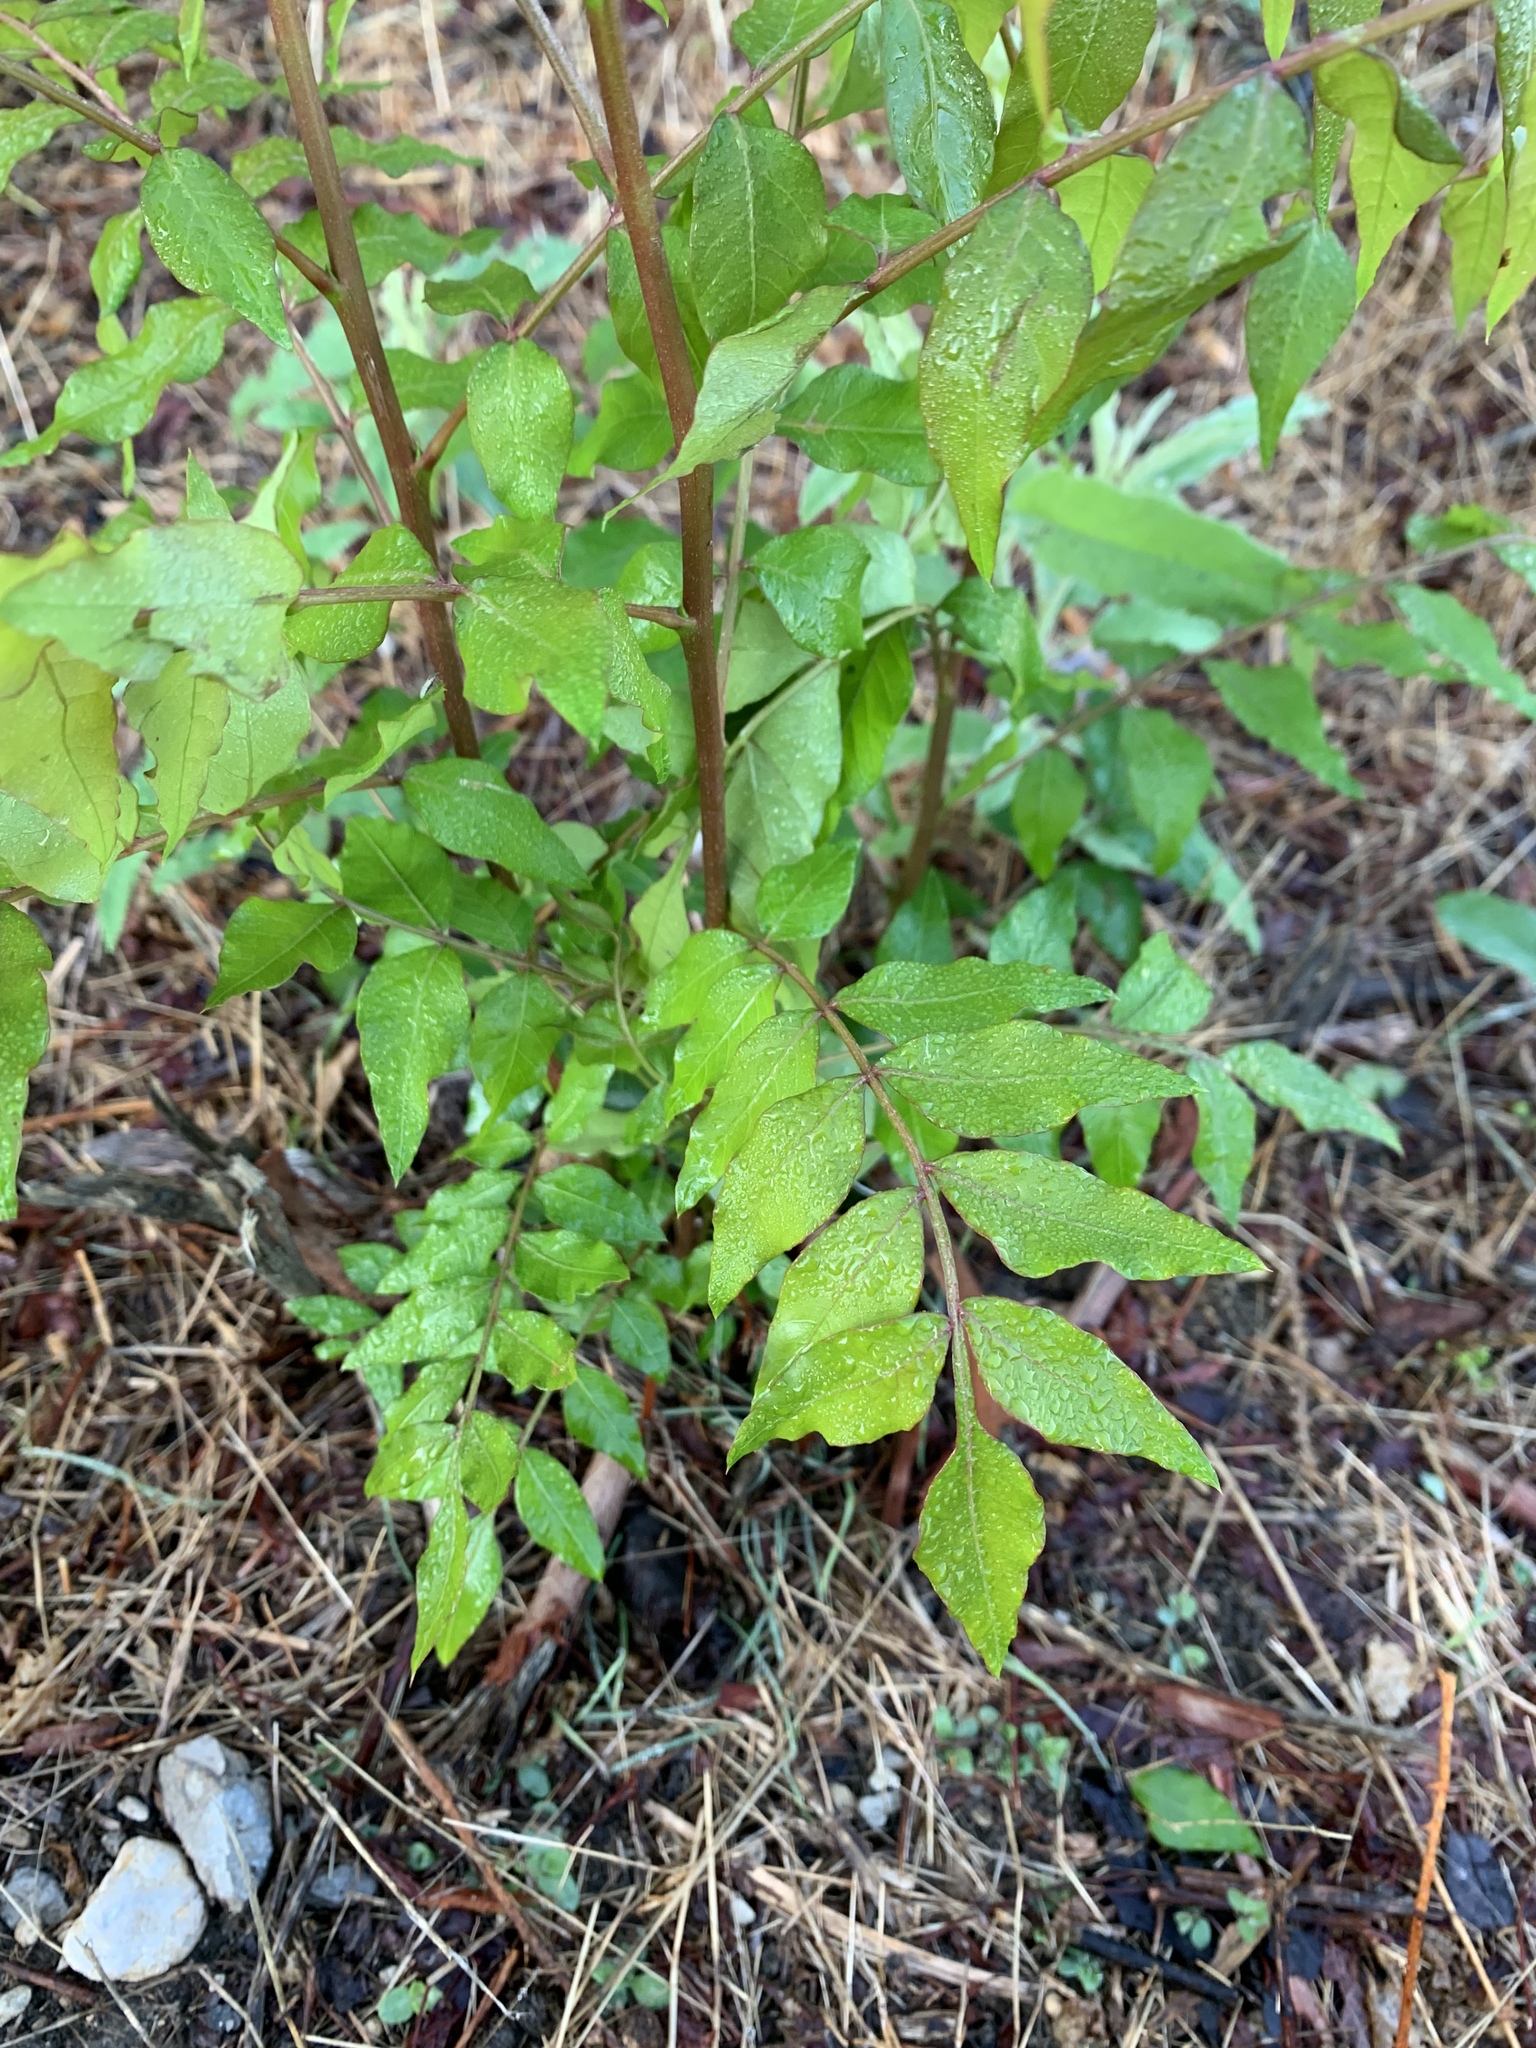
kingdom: Plantae
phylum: Tracheophyta
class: Magnoliopsida
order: Sapindales
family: Rutaceae
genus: Zanthoxylum
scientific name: Zanthoxylum clava-herculis
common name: Hercules'-club
